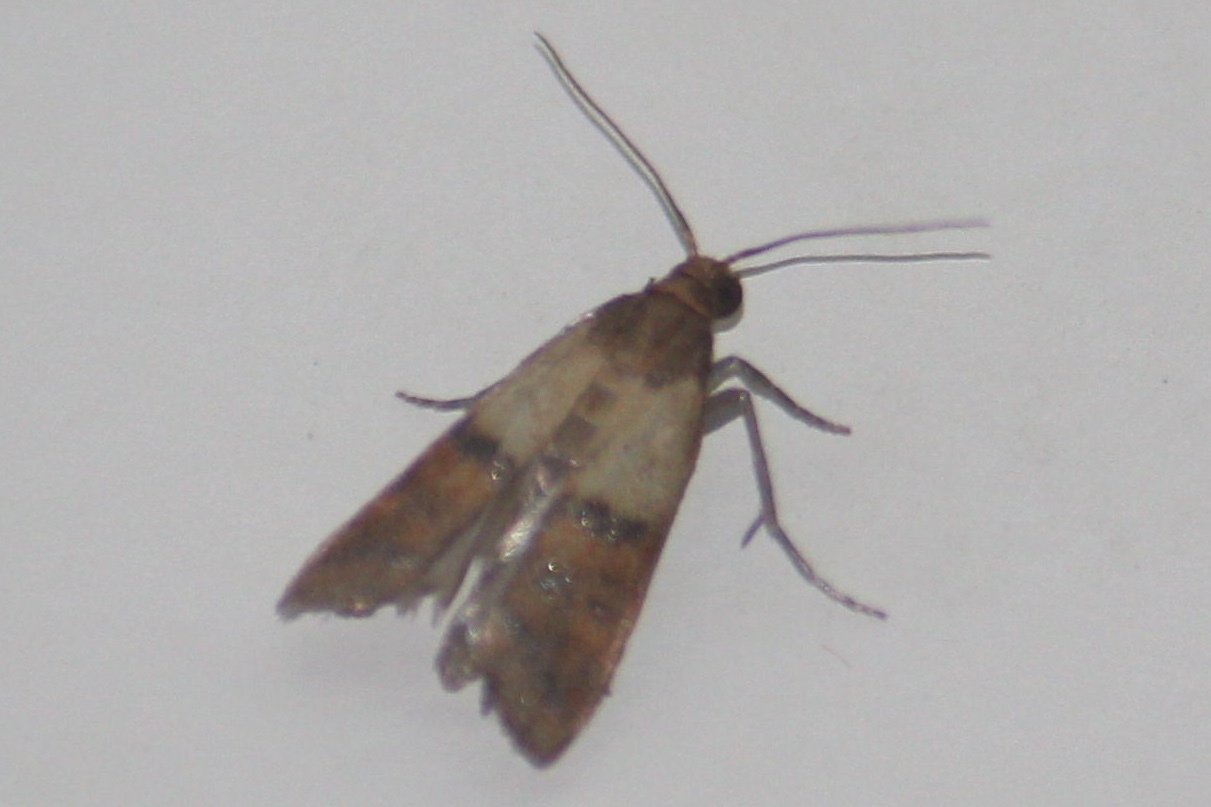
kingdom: Animalia
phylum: Arthropoda
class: Insecta
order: Lepidoptera
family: Pyralidae
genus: Plodia
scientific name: Plodia interpunctella
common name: Indian meal moth
